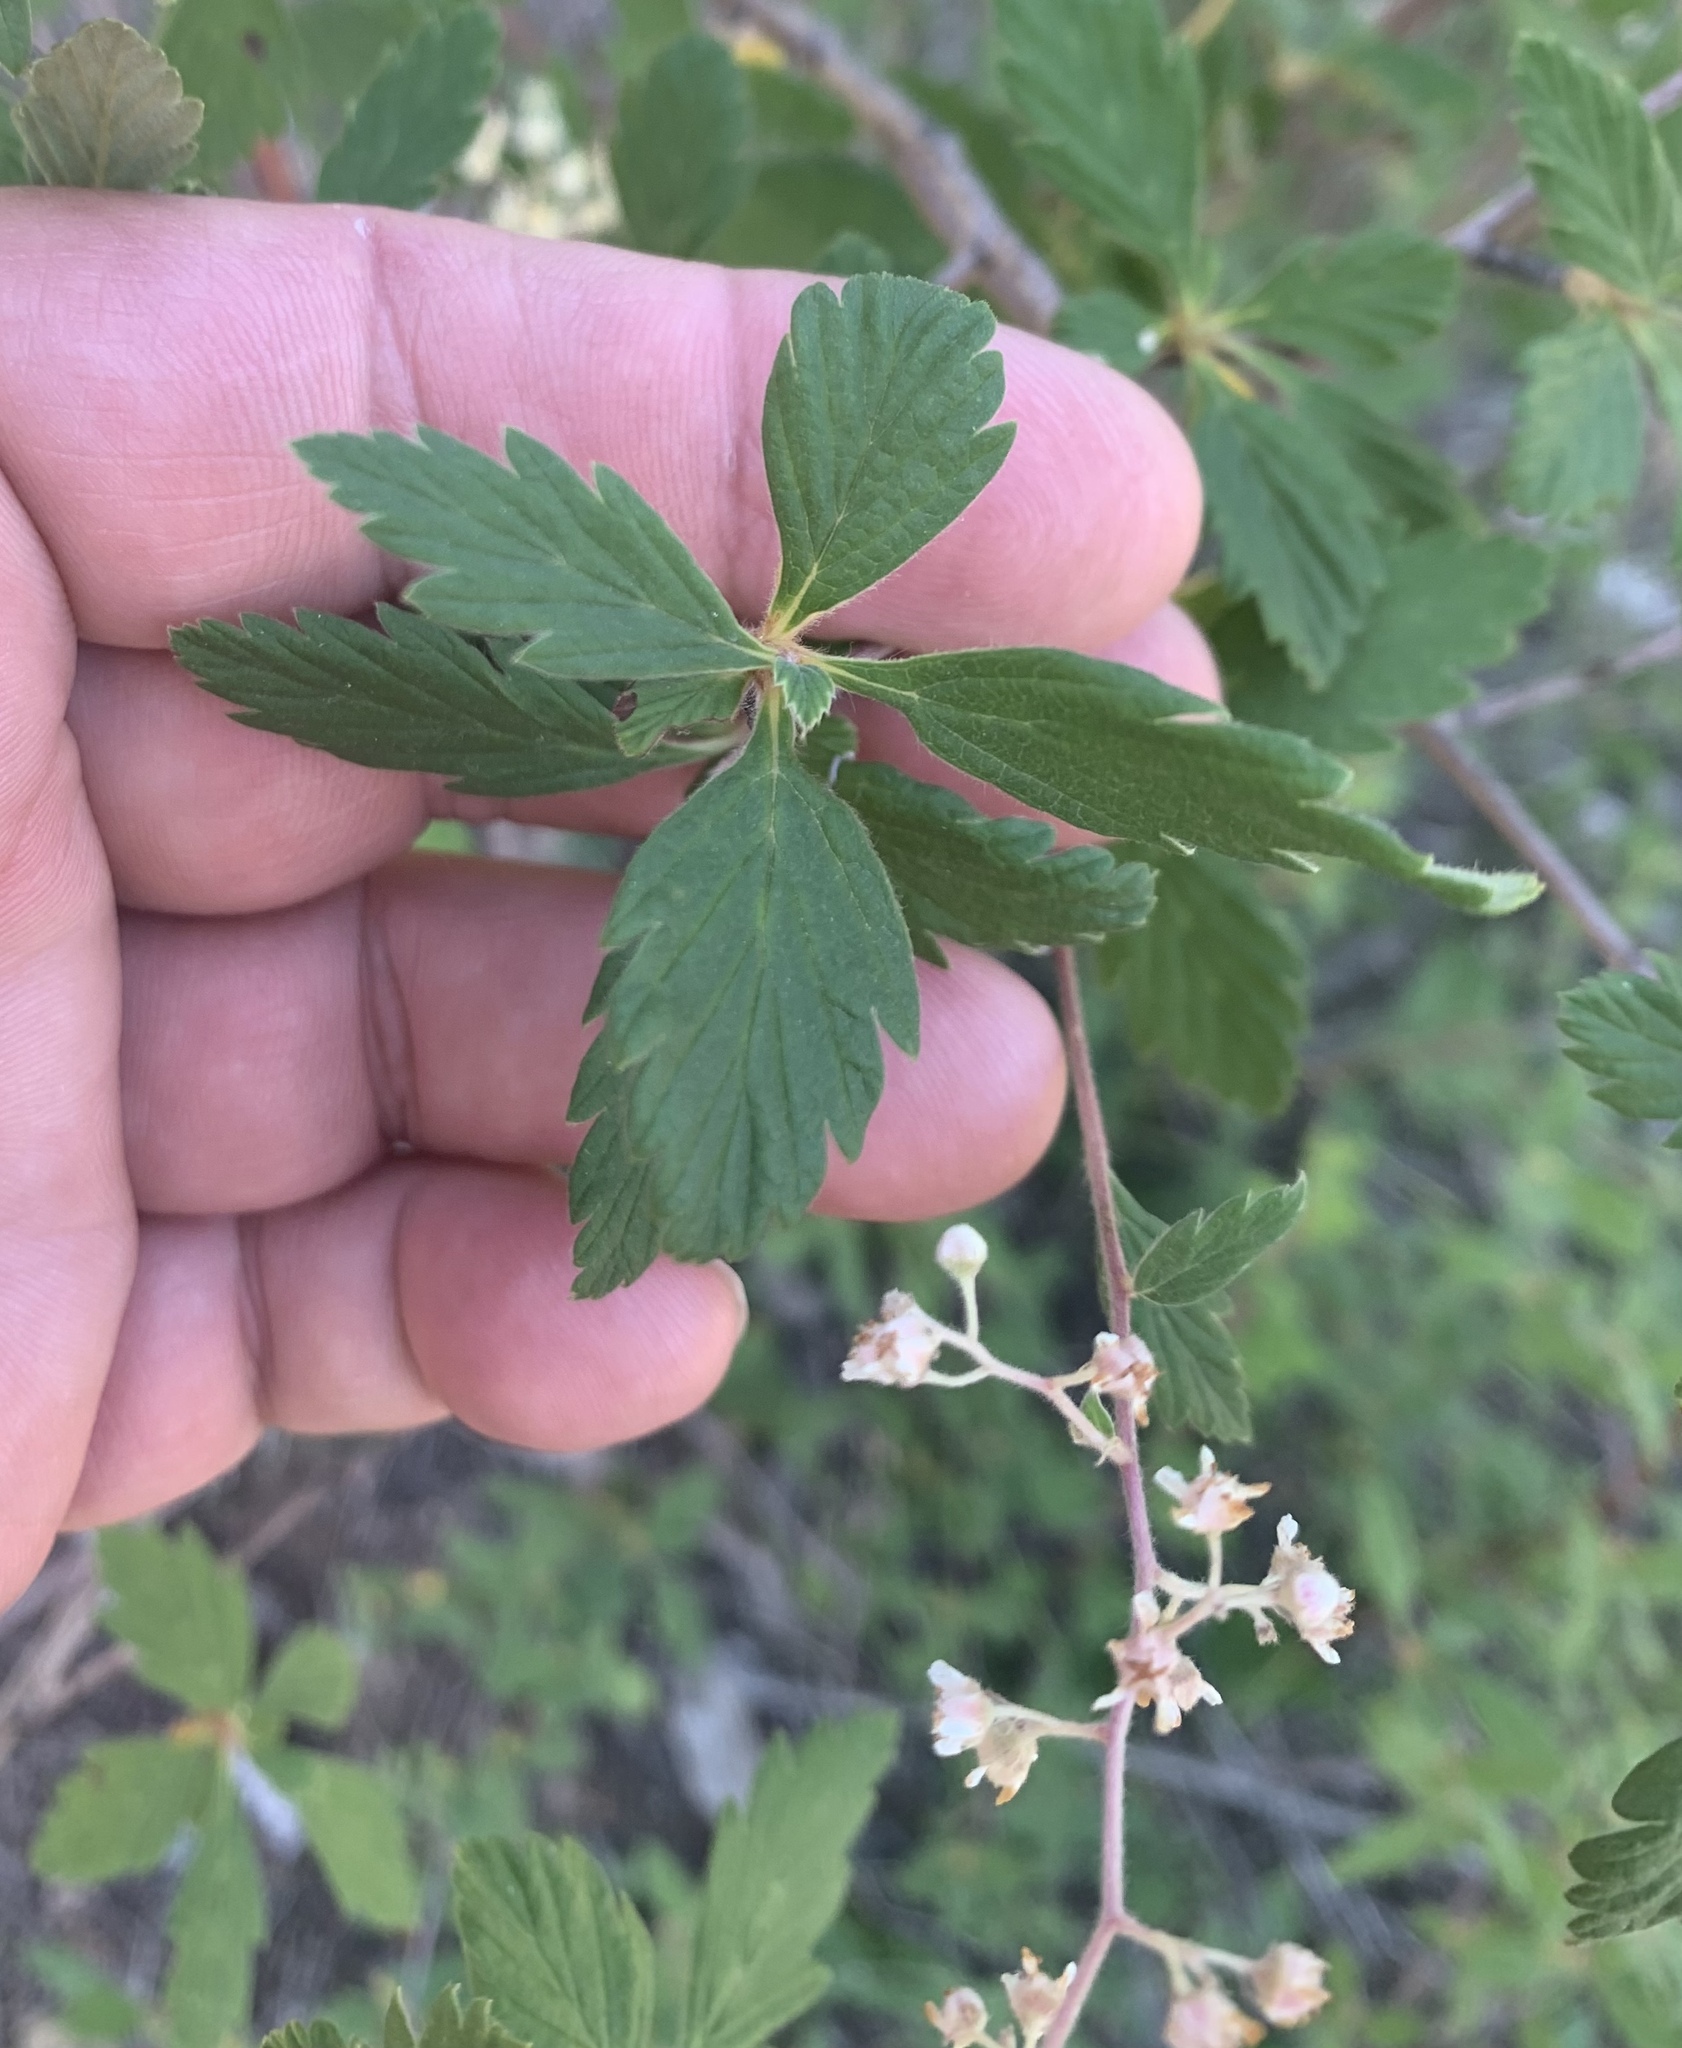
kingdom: Plantae
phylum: Tracheophyta
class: Magnoliopsida
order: Rosales
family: Rosaceae
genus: Holodiscus
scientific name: Holodiscus discolor
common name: Oceanspray
